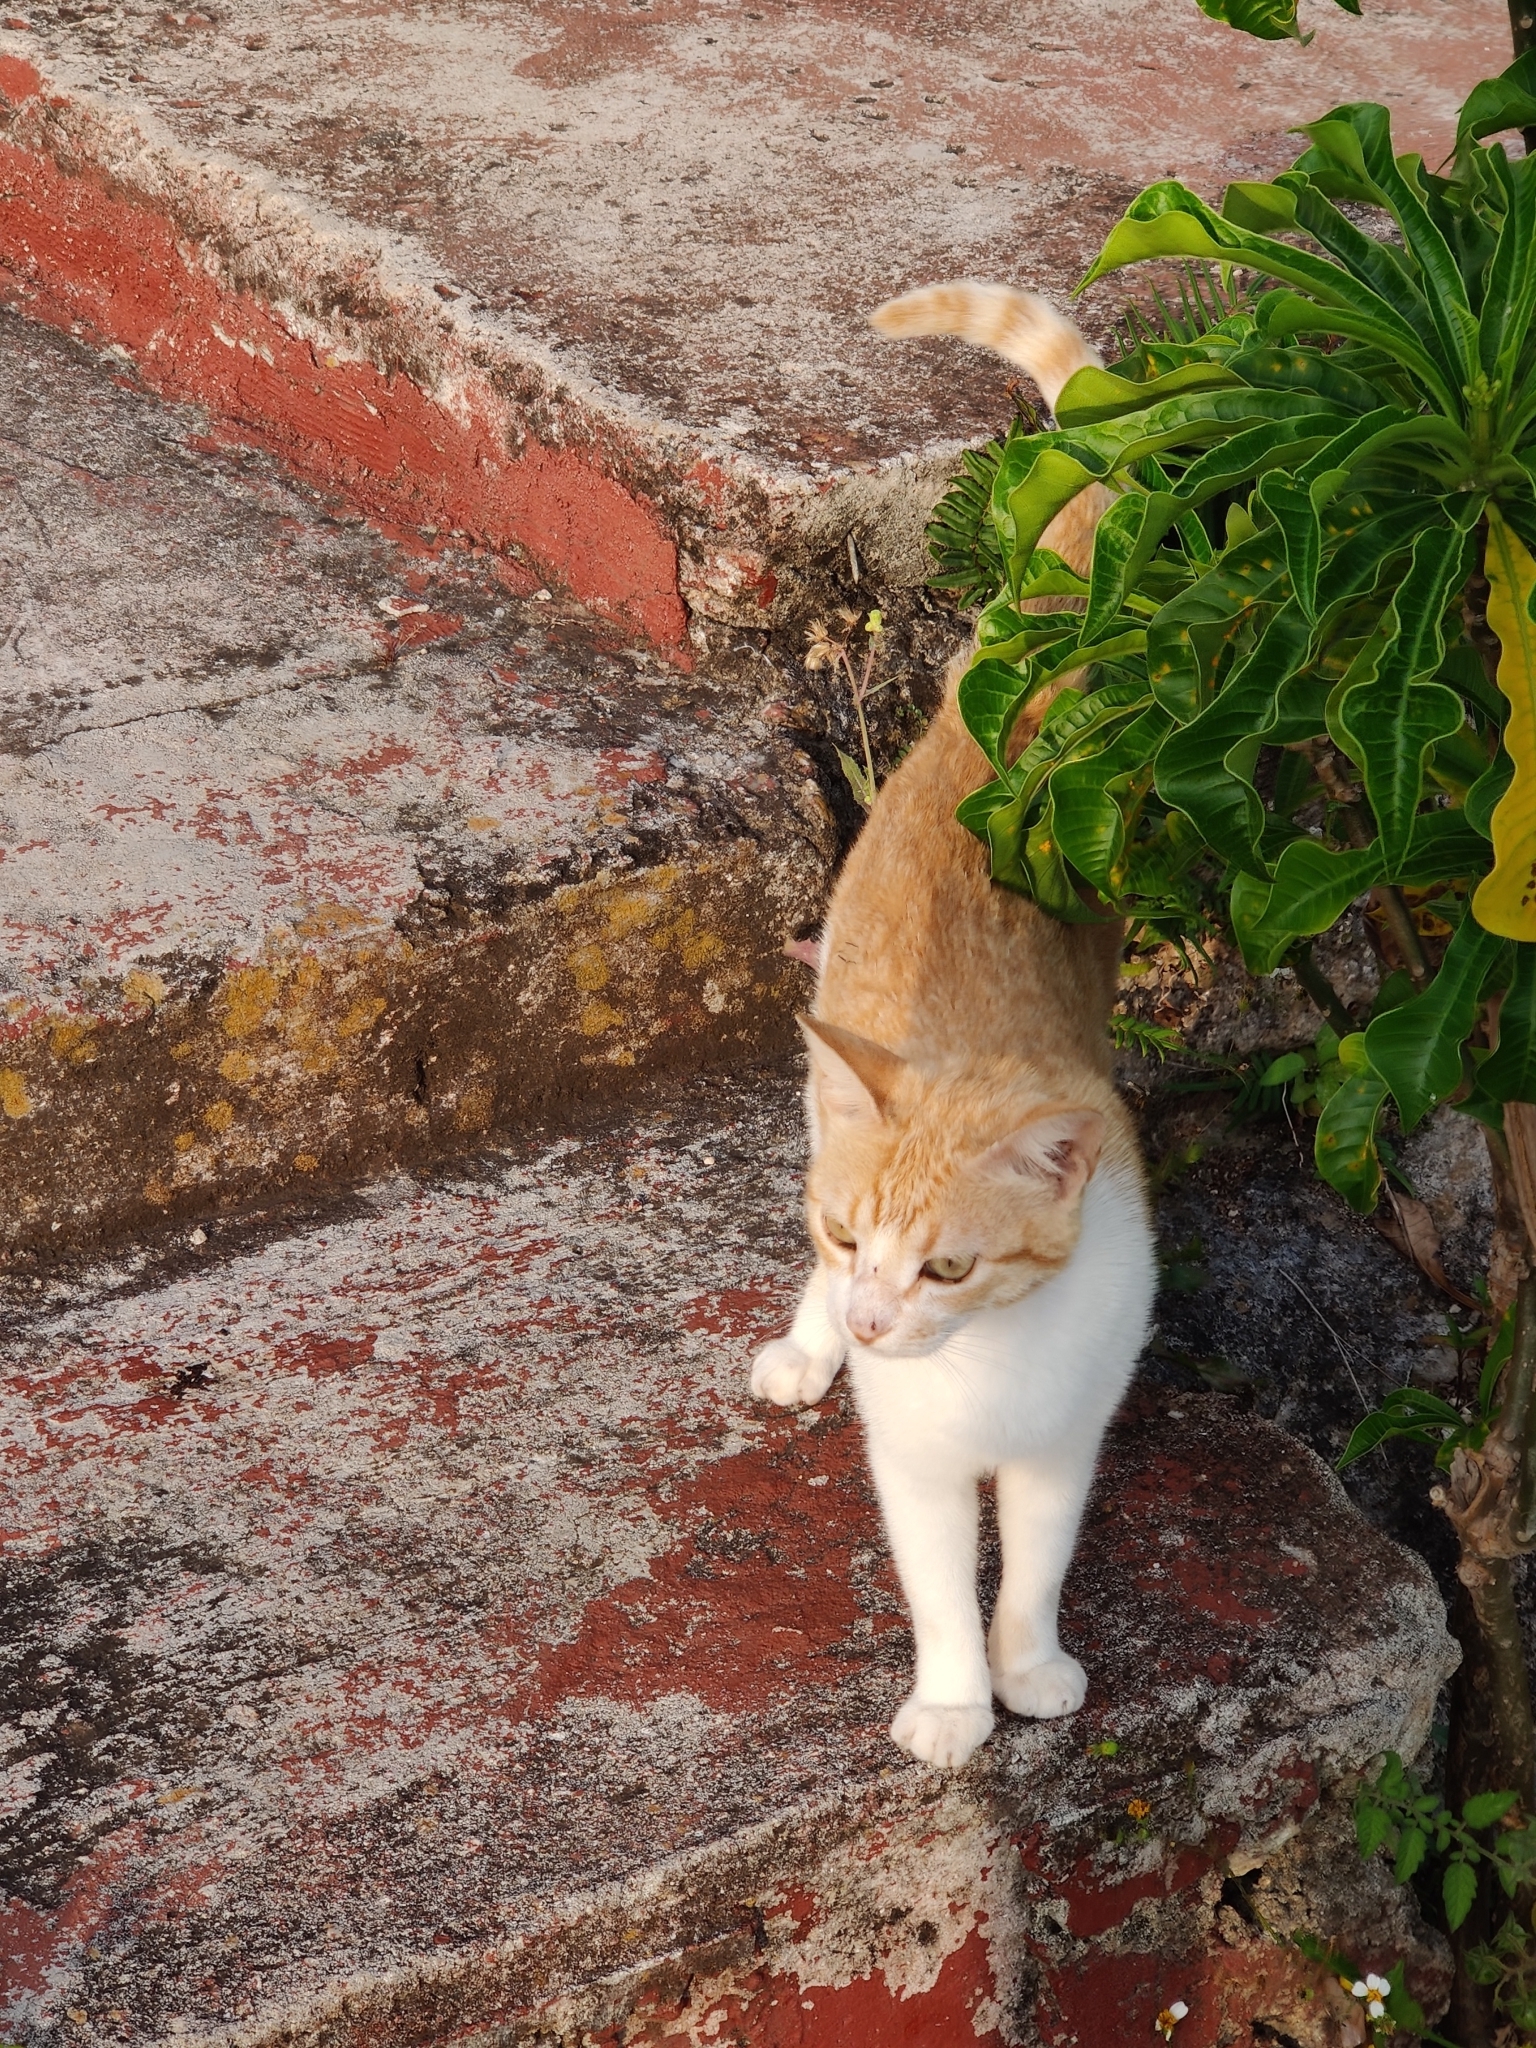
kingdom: Animalia
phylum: Chordata
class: Mammalia
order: Carnivora
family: Felidae
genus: Felis
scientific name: Felis catus
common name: Domestic cat
